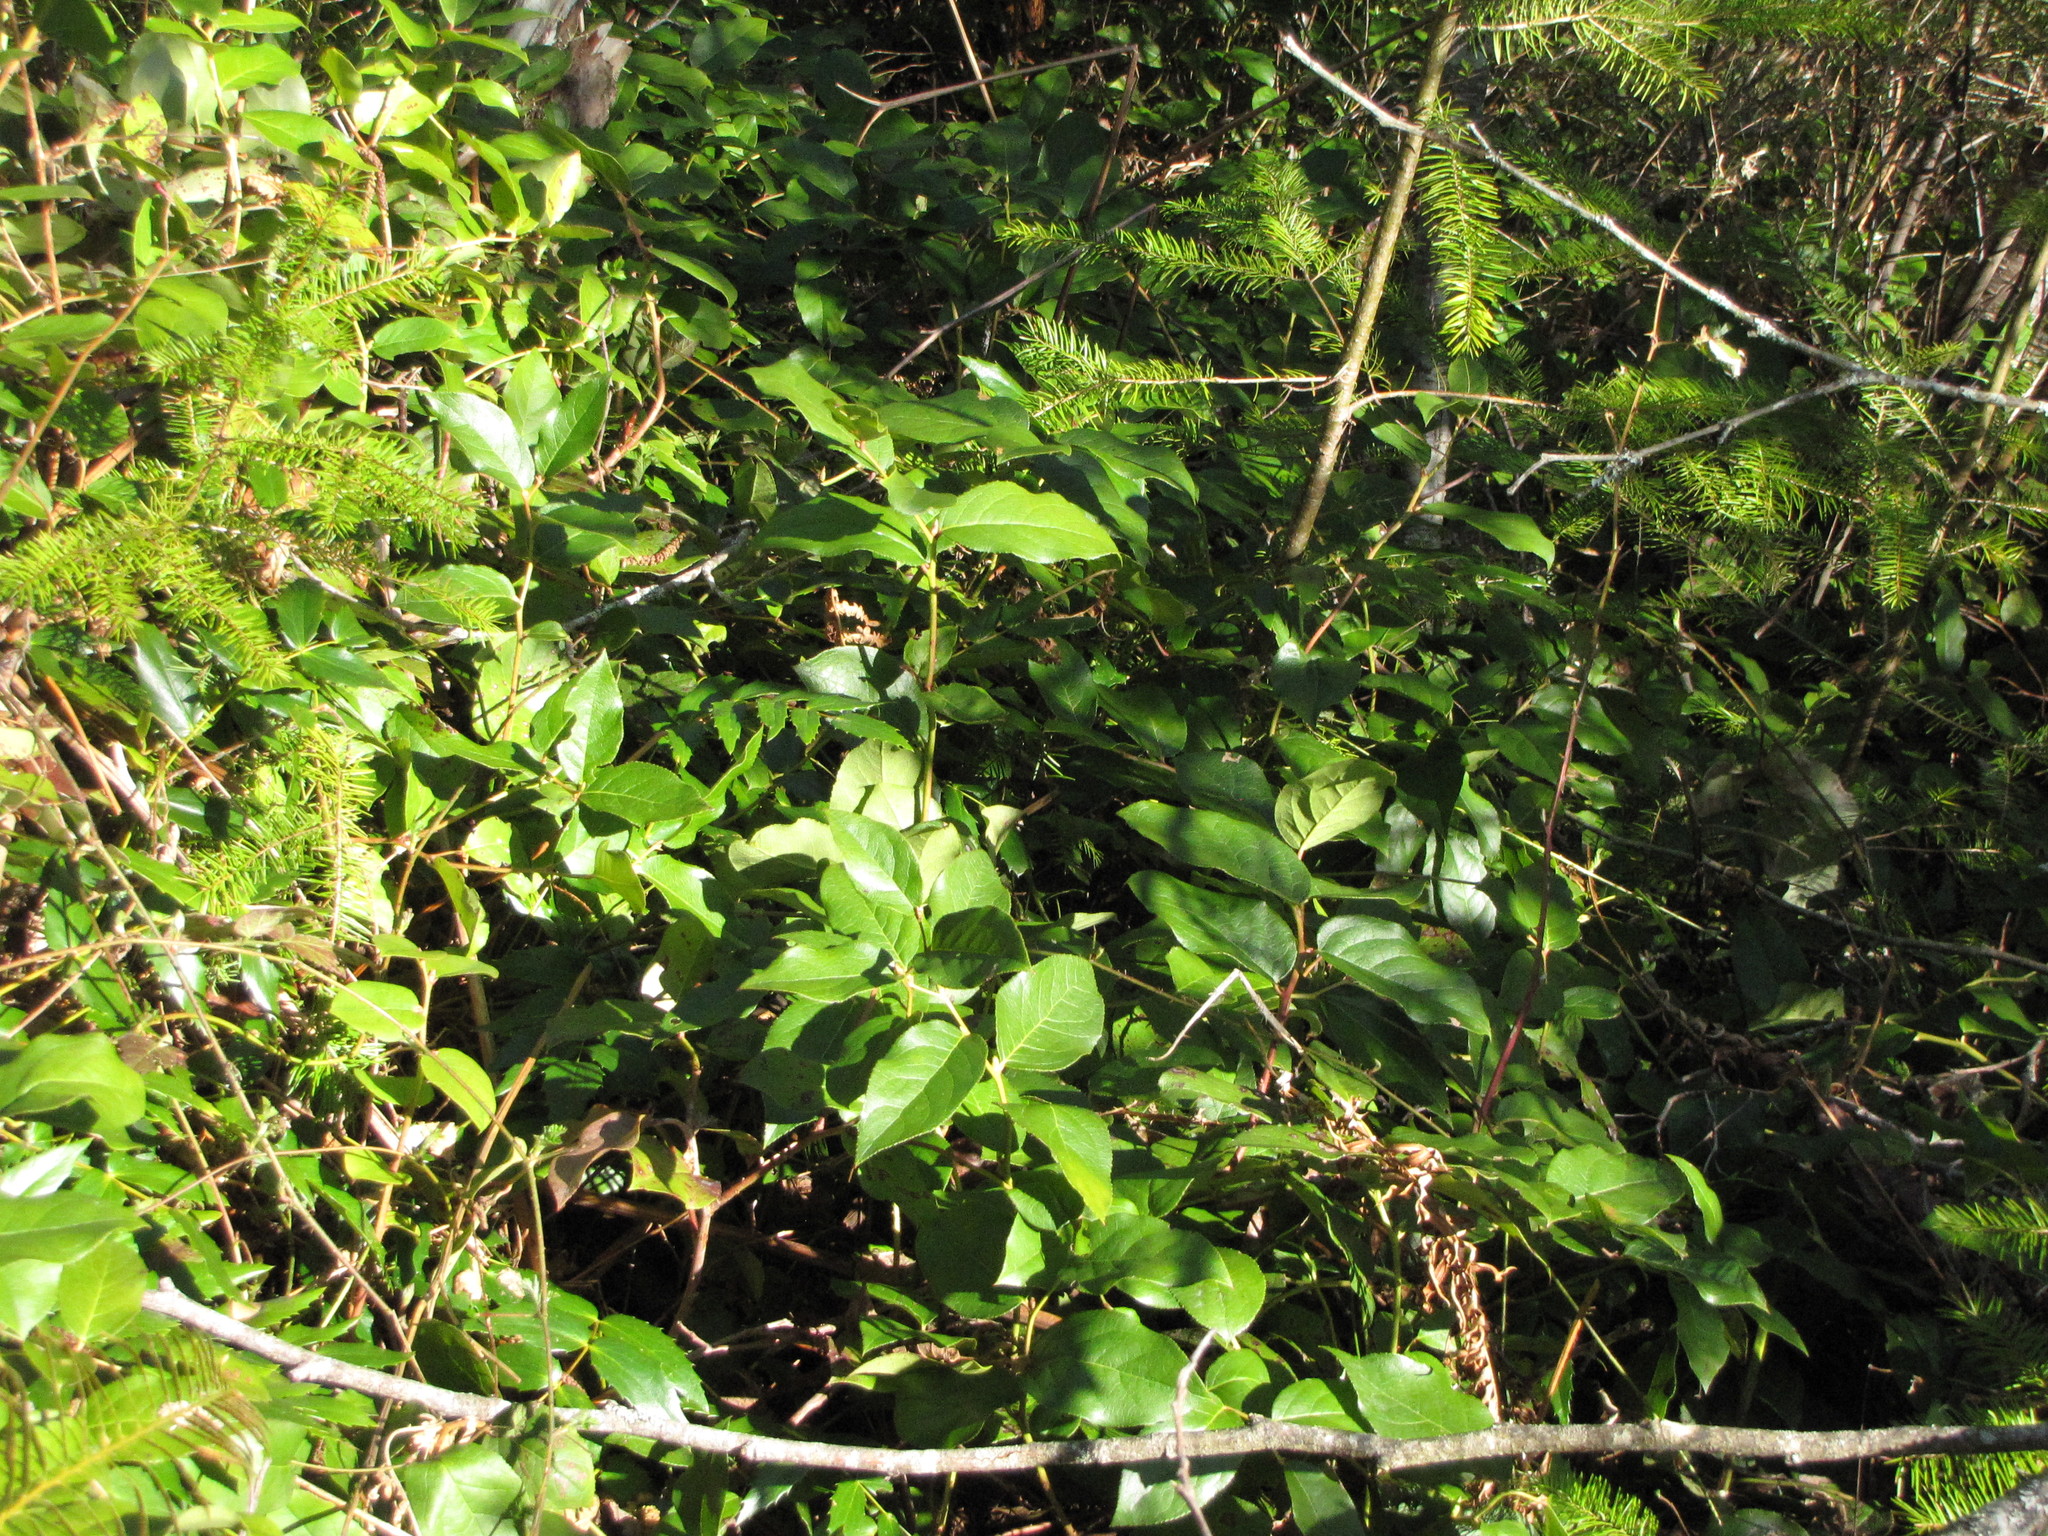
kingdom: Plantae
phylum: Tracheophyta
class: Magnoliopsida
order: Ericales
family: Ericaceae
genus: Gaultheria
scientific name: Gaultheria shallon
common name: Shallon
